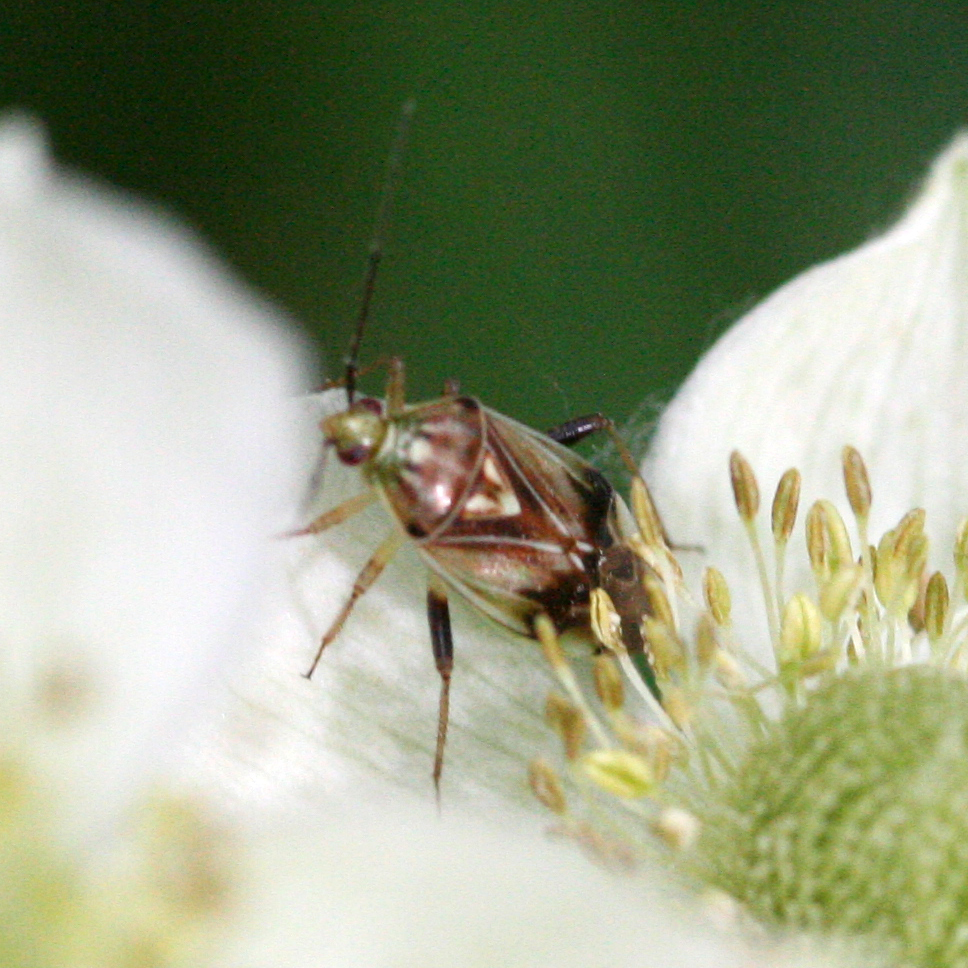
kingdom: Animalia
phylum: Arthropoda
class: Insecta
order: Hemiptera
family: Miridae
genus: Lygus
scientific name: Lygus
